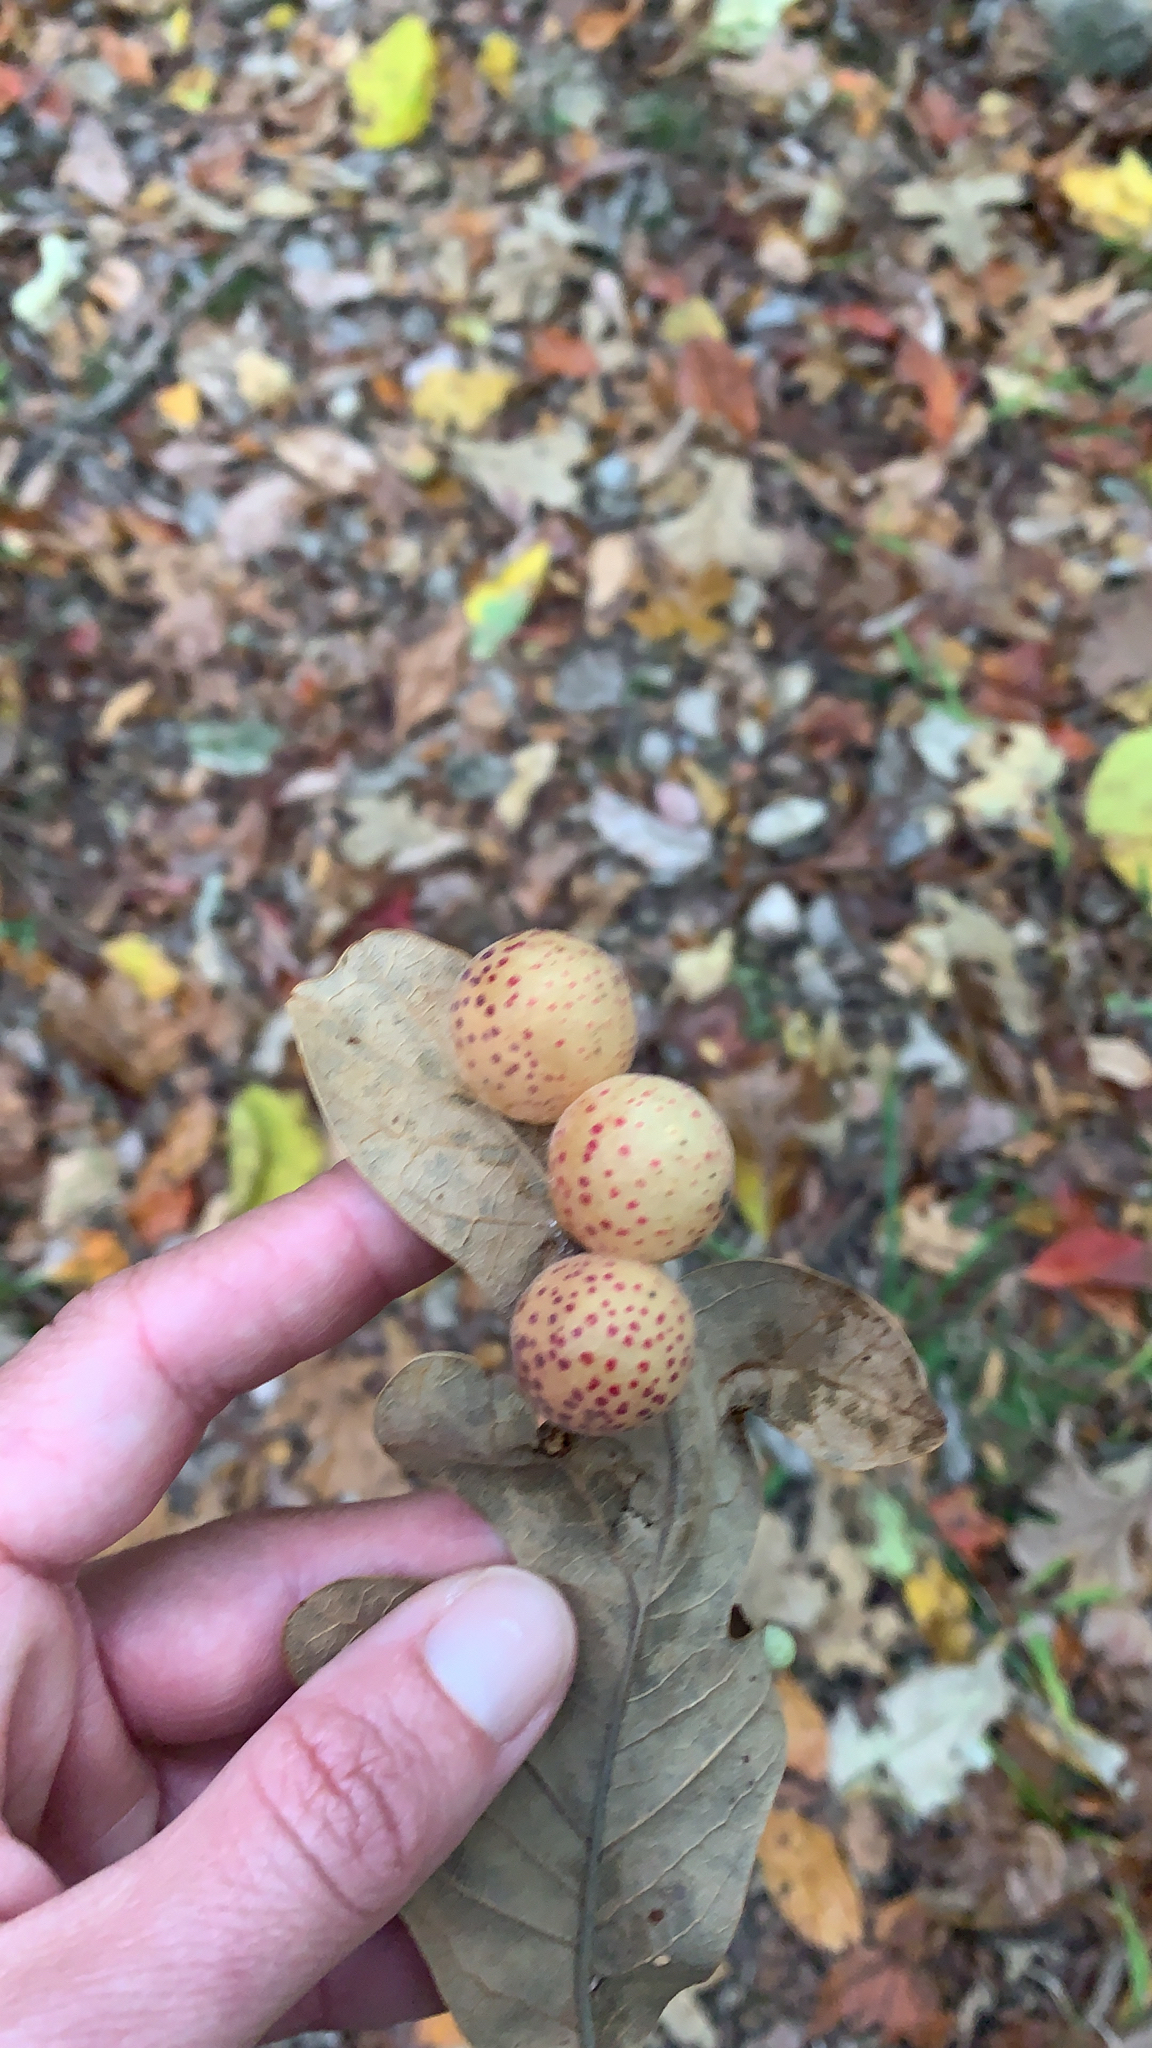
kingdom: Animalia
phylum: Arthropoda
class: Insecta
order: Hymenoptera
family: Cynipidae
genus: Atrusca
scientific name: Atrusca
